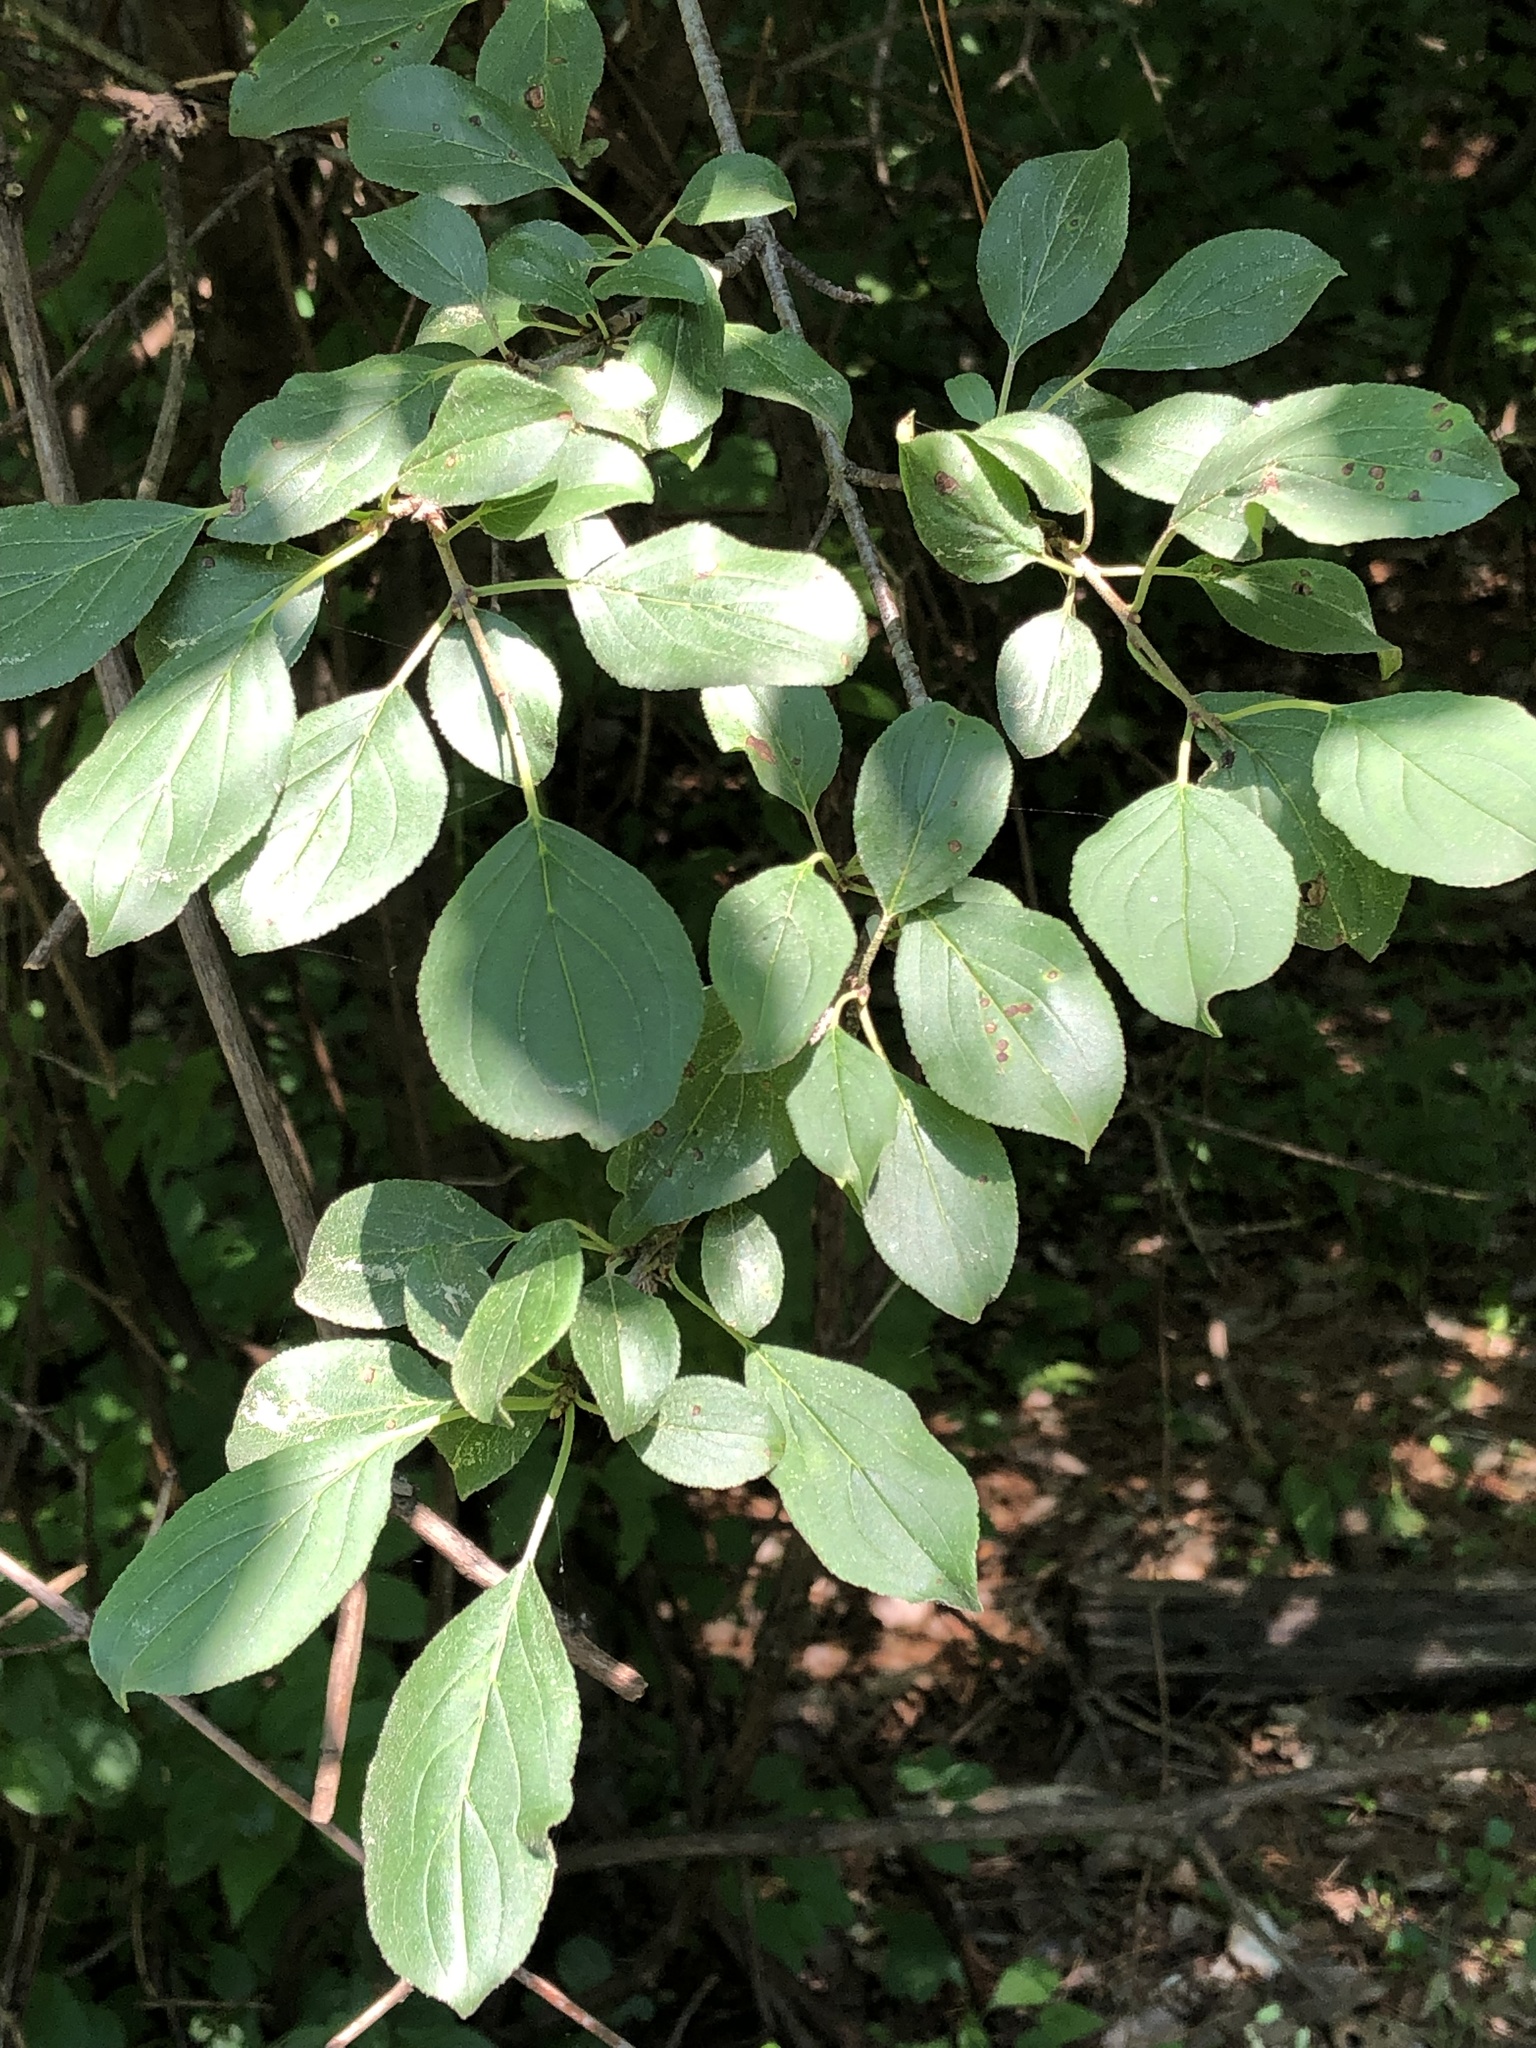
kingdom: Plantae
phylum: Tracheophyta
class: Magnoliopsida
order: Rosales
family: Rhamnaceae
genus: Rhamnus
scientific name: Rhamnus cathartica
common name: Common buckthorn
